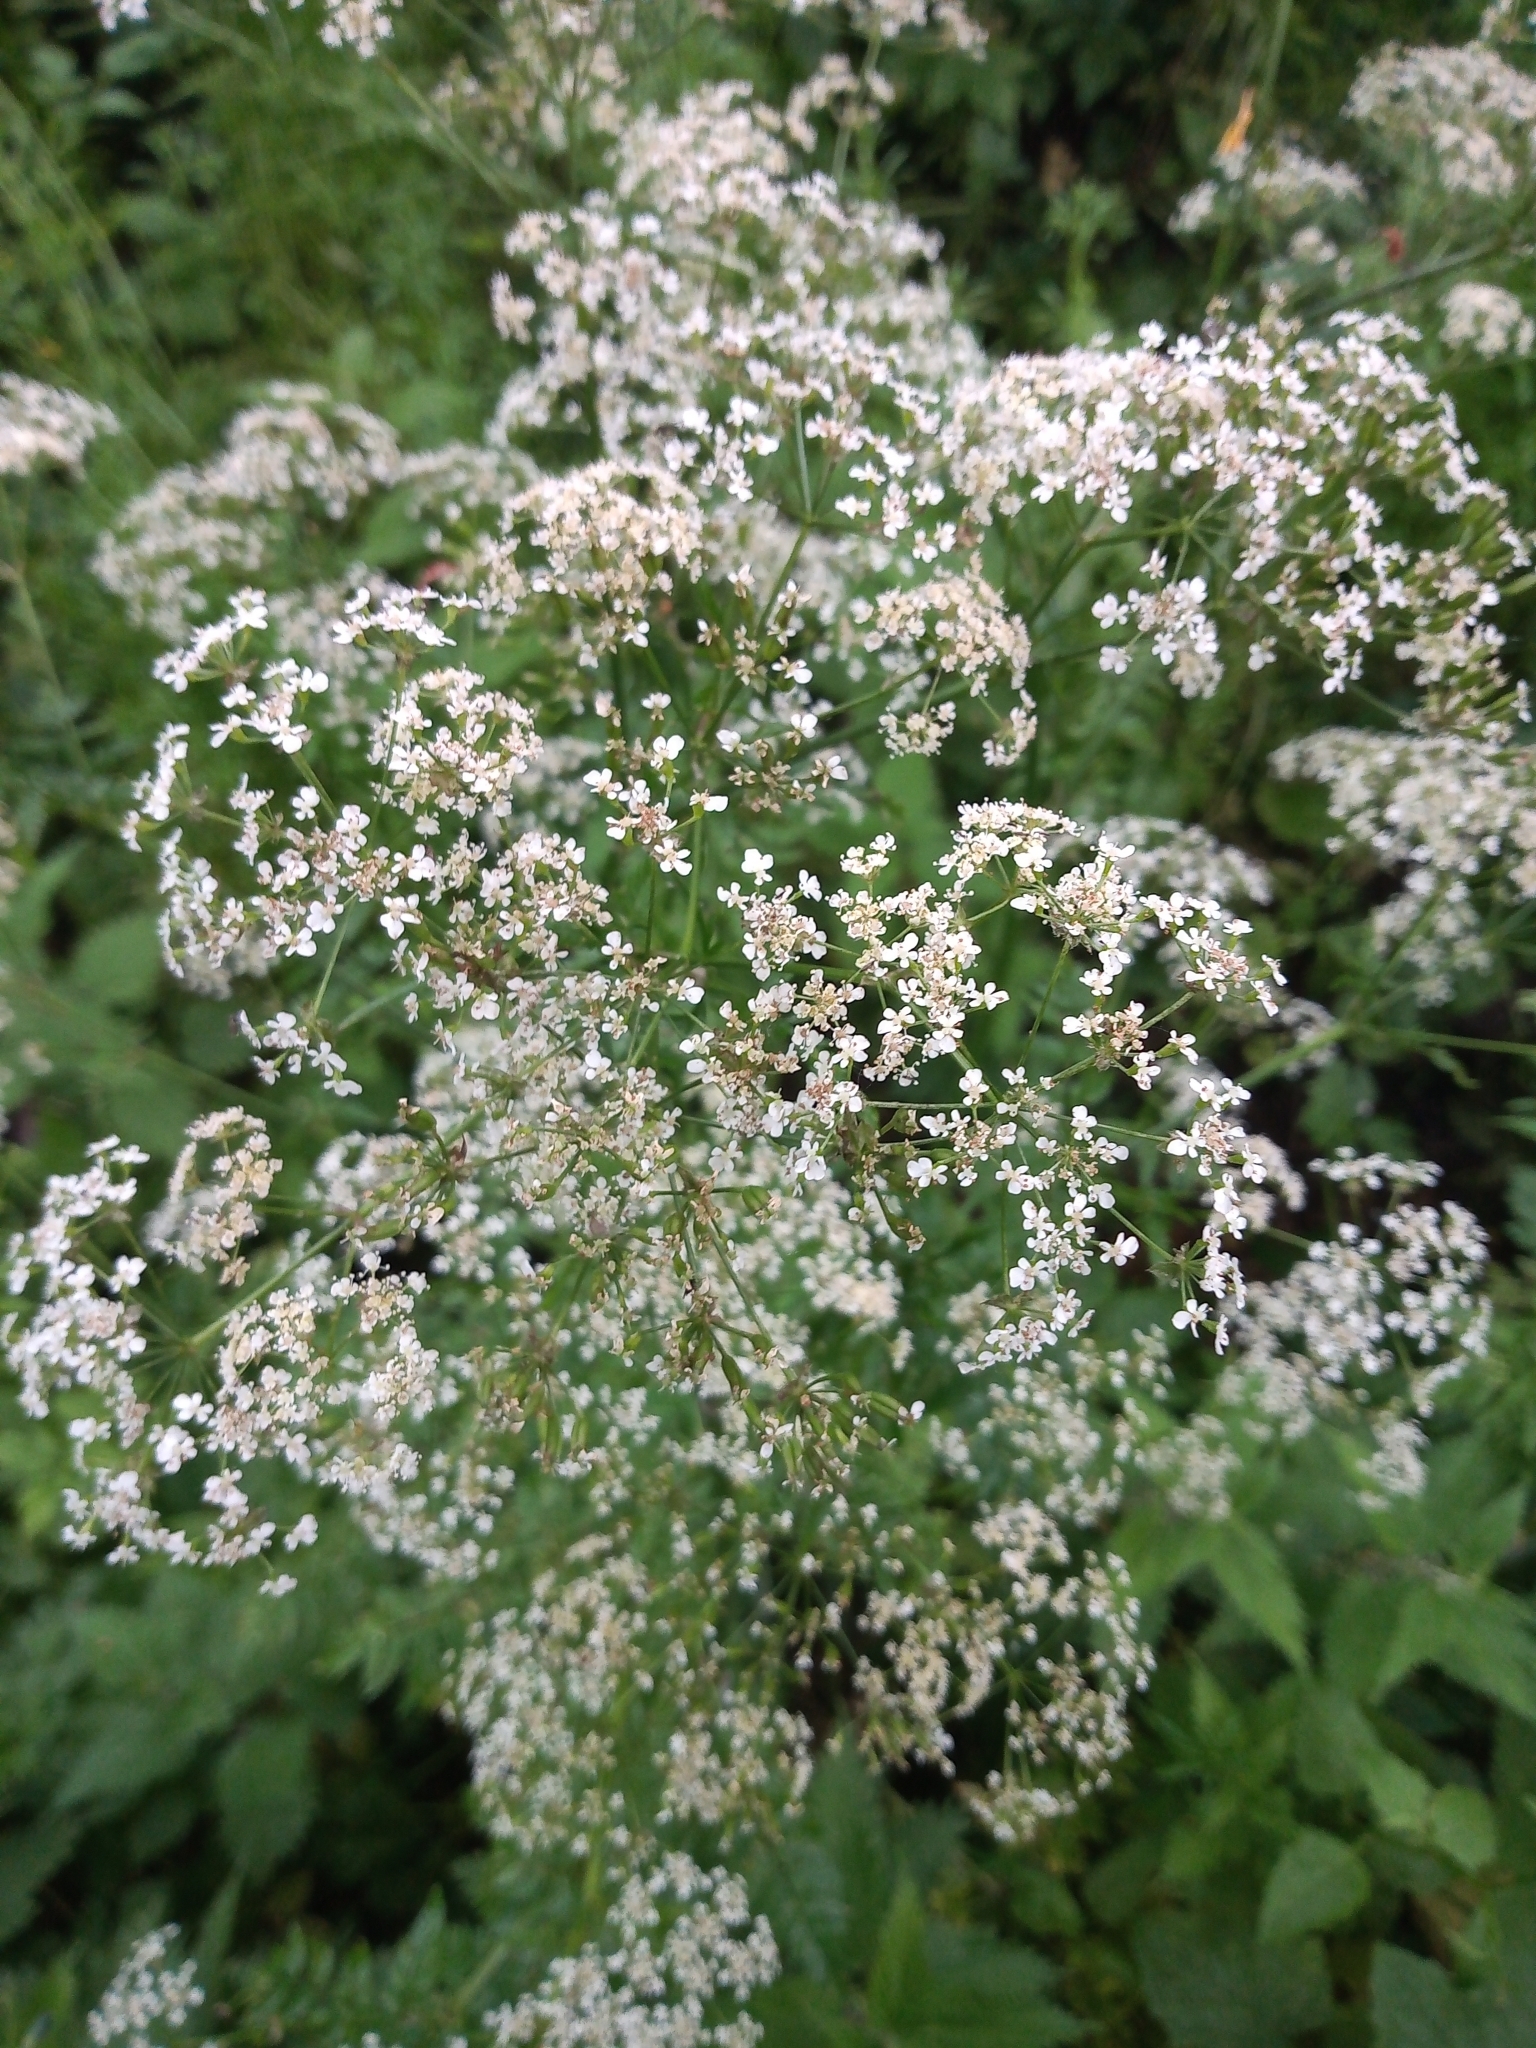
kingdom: Plantae
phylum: Tracheophyta
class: Magnoliopsida
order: Apiales
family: Apiaceae
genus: Anthriscus
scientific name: Anthriscus sylvestris
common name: Cow parsley
